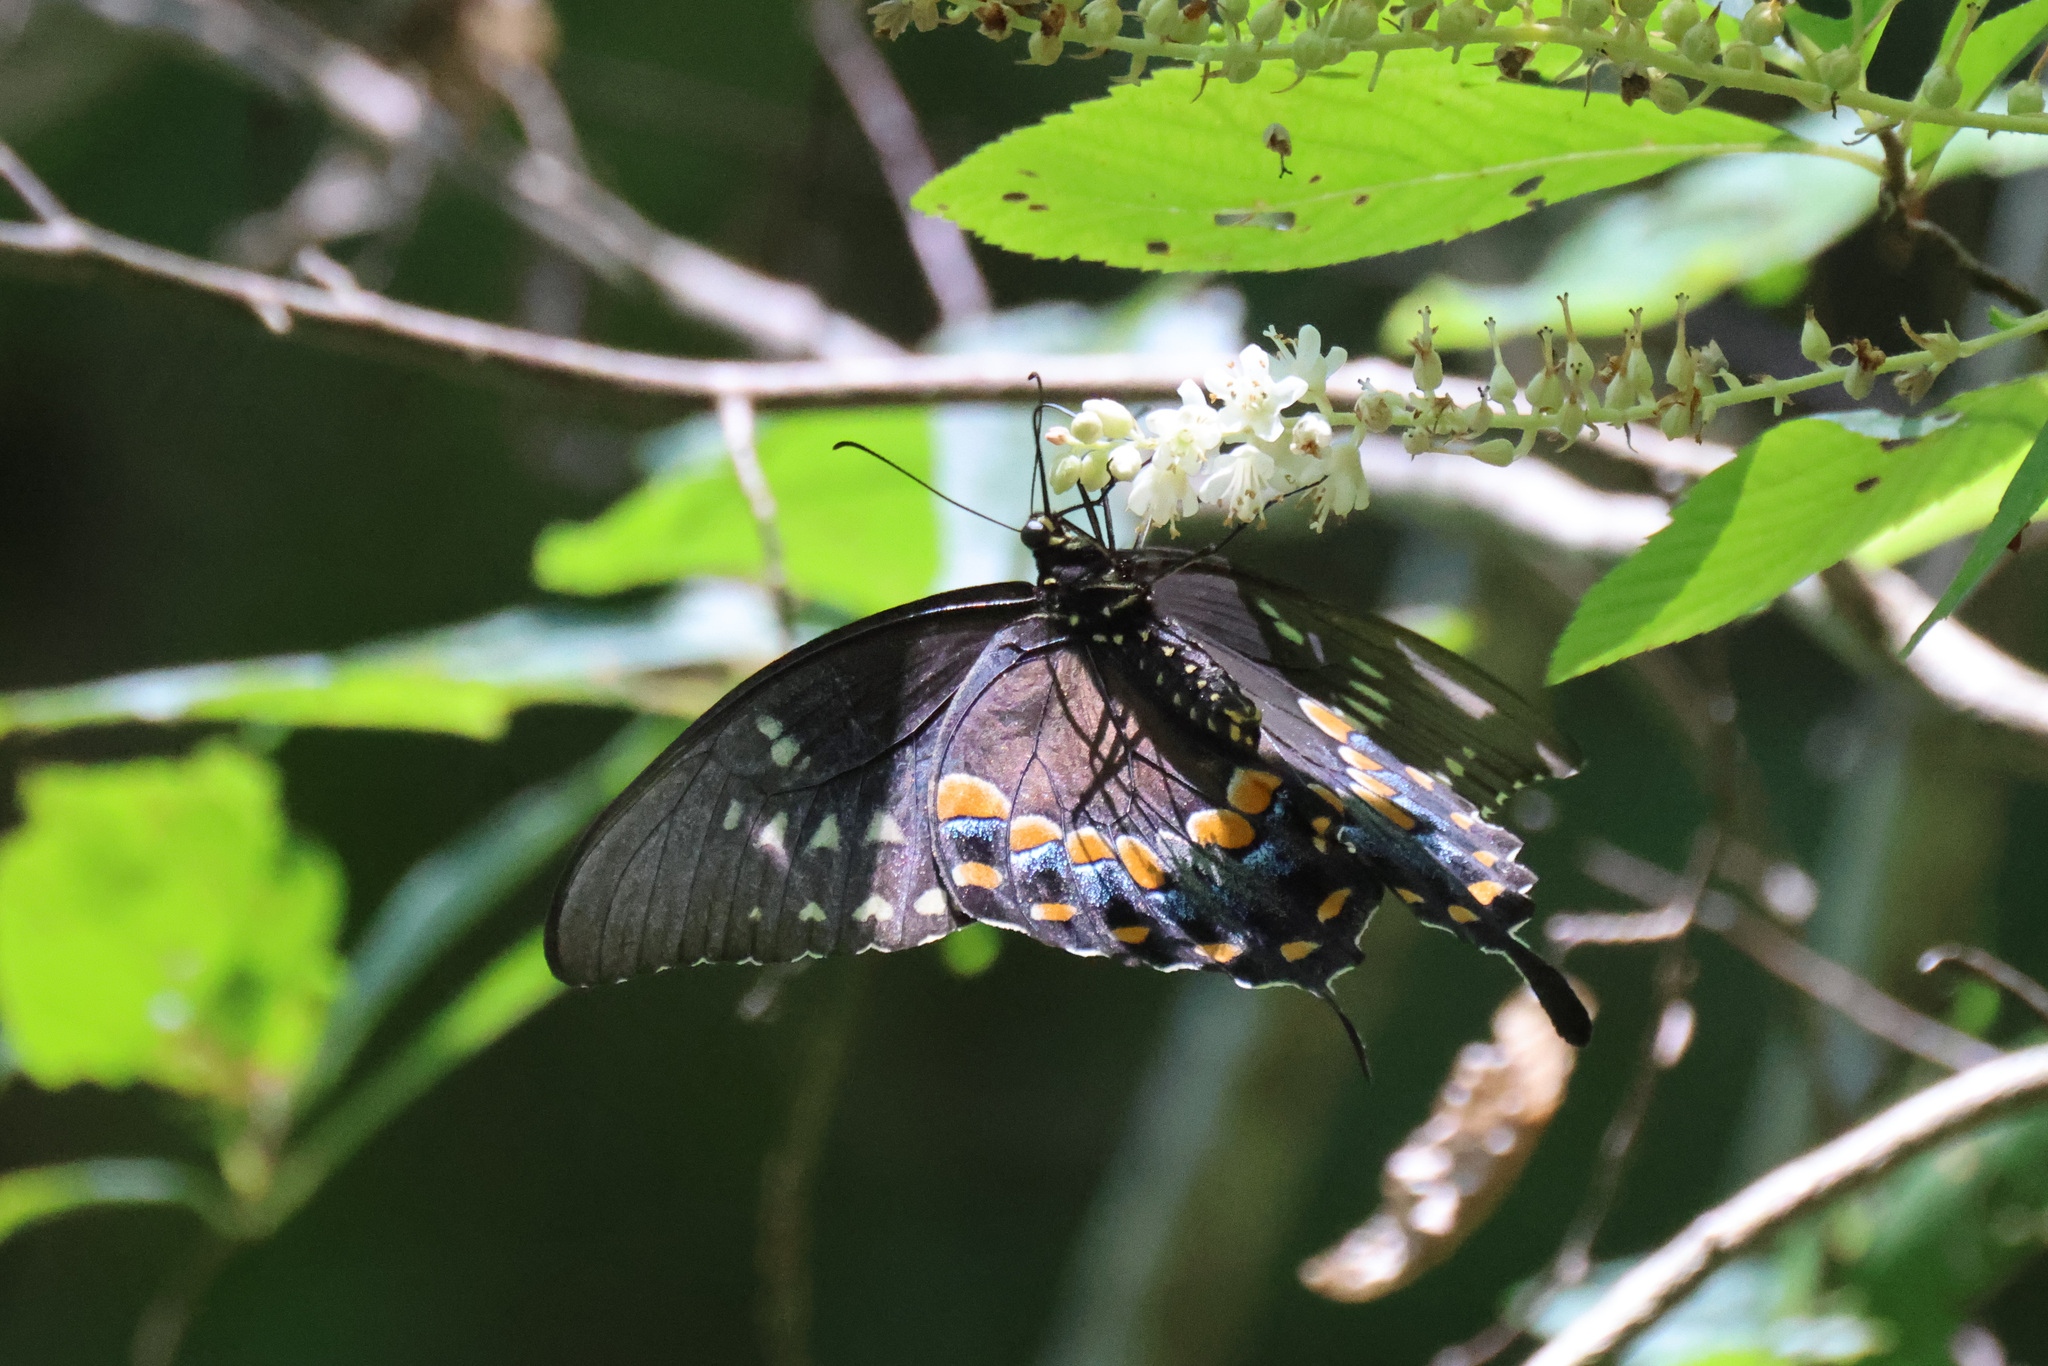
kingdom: Animalia
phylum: Arthropoda
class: Insecta
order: Lepidoptera
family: Papilionidae
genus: Papilio
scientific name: Papilio troilus
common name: Spicebush swallowtail
